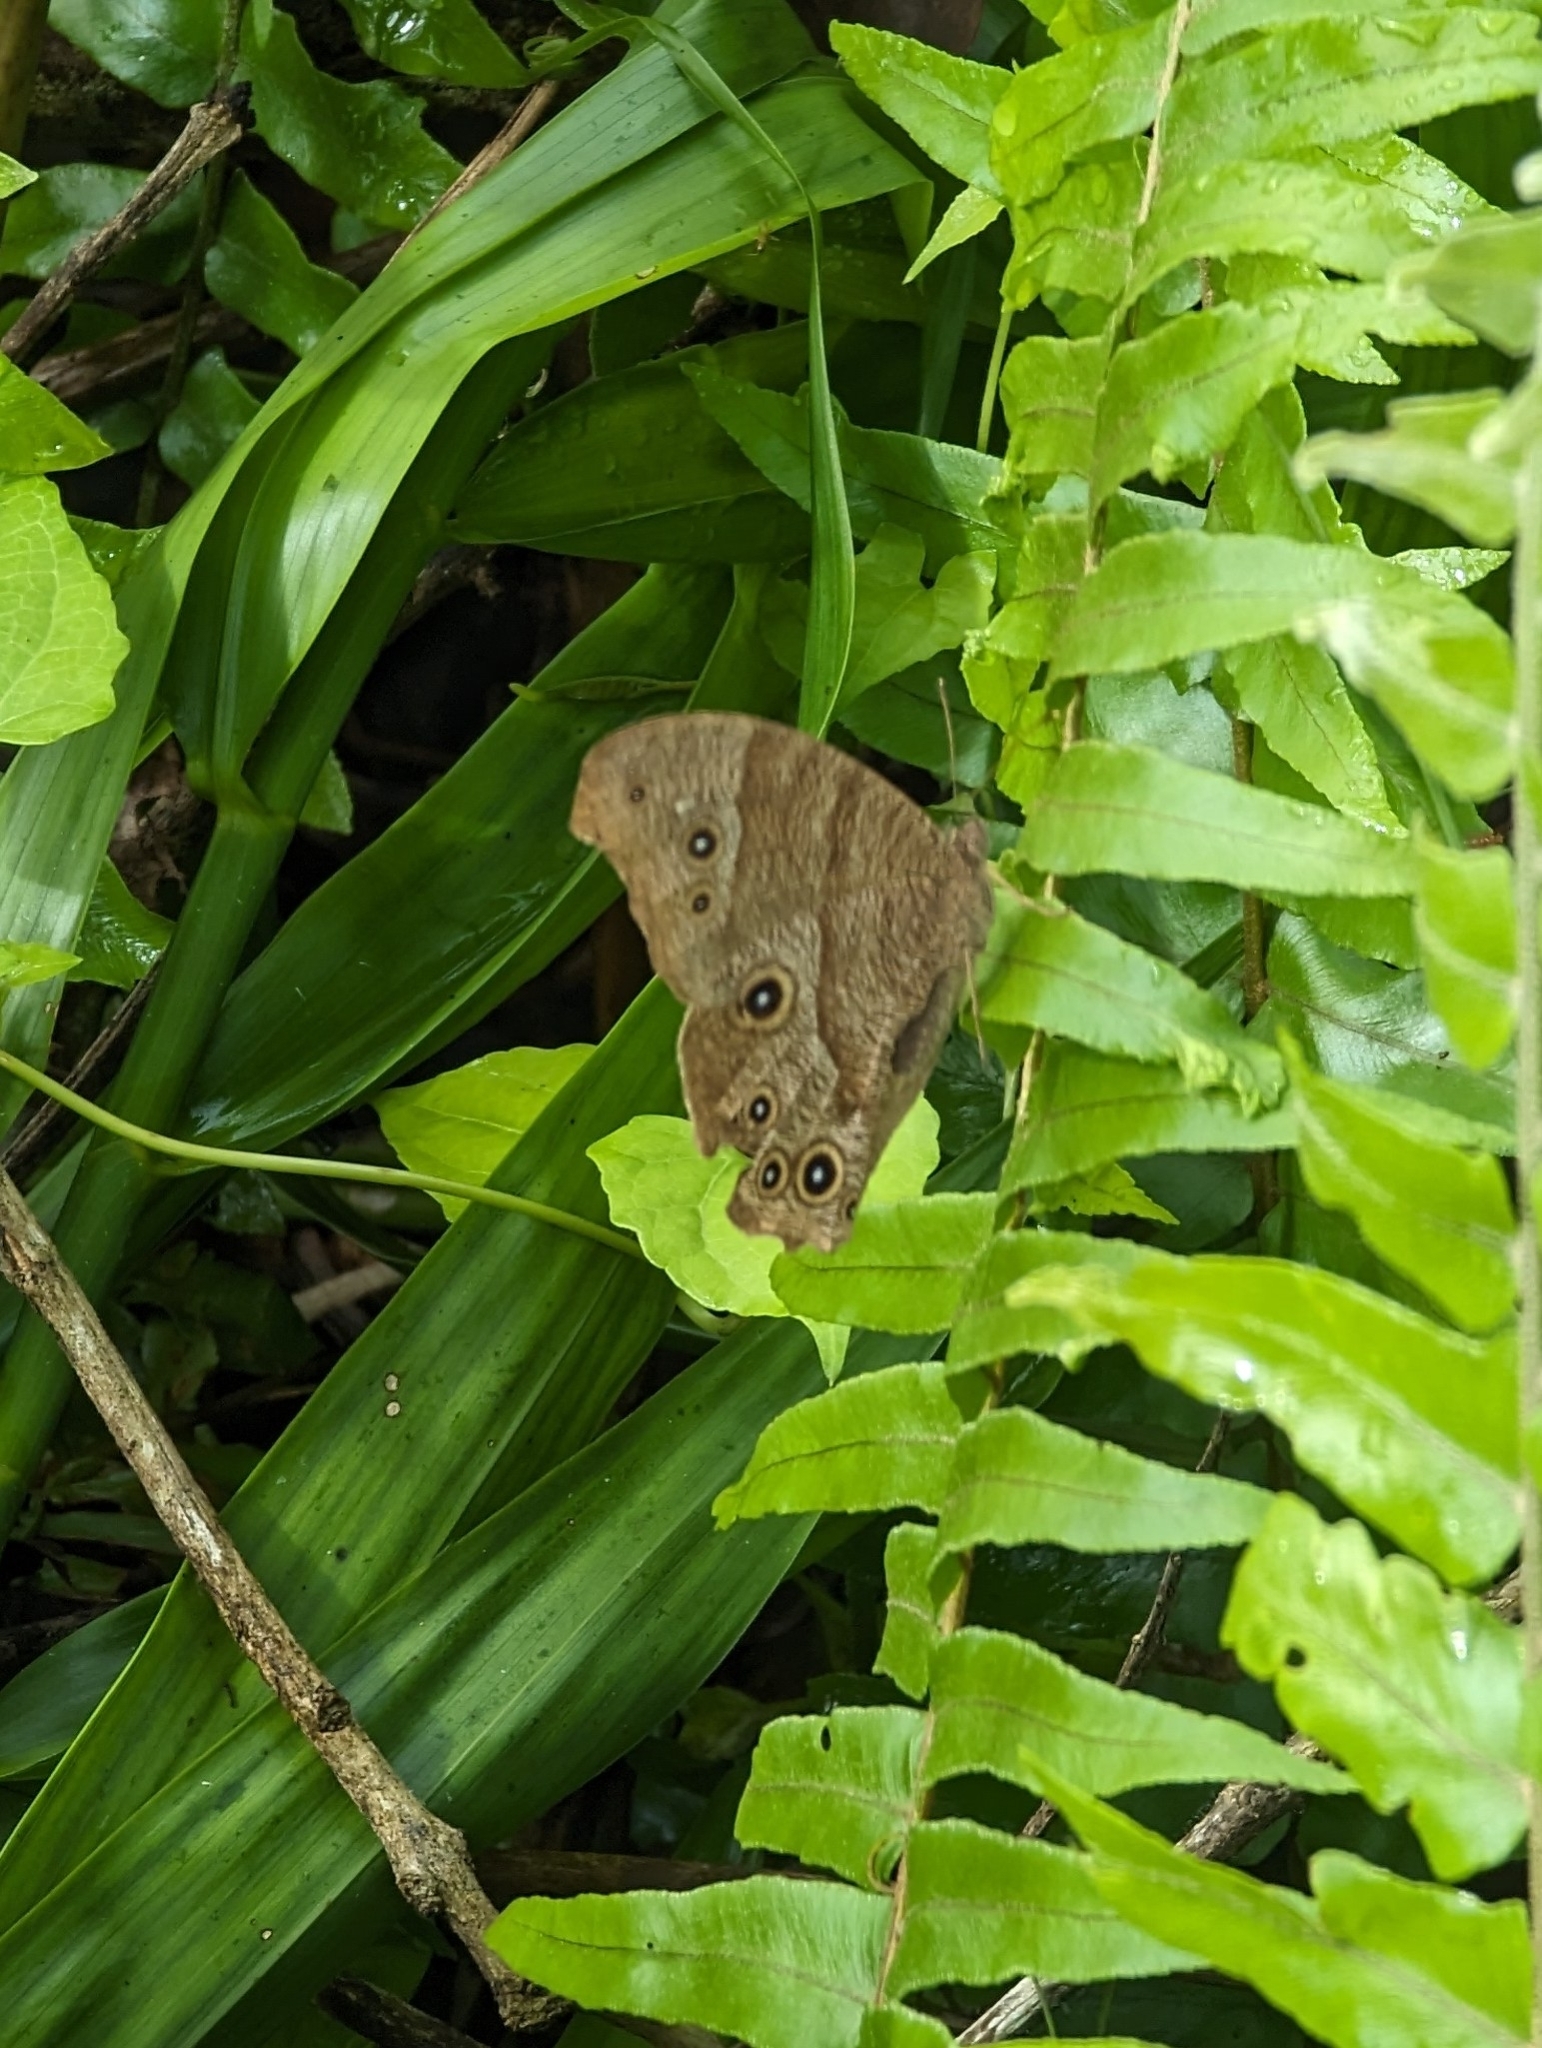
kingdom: Animalia
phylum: Arthropoda
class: Insecta
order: Lepidoptera
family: Nymphalidae
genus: Melanitis
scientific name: Melanitis leda
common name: Twilight brown
